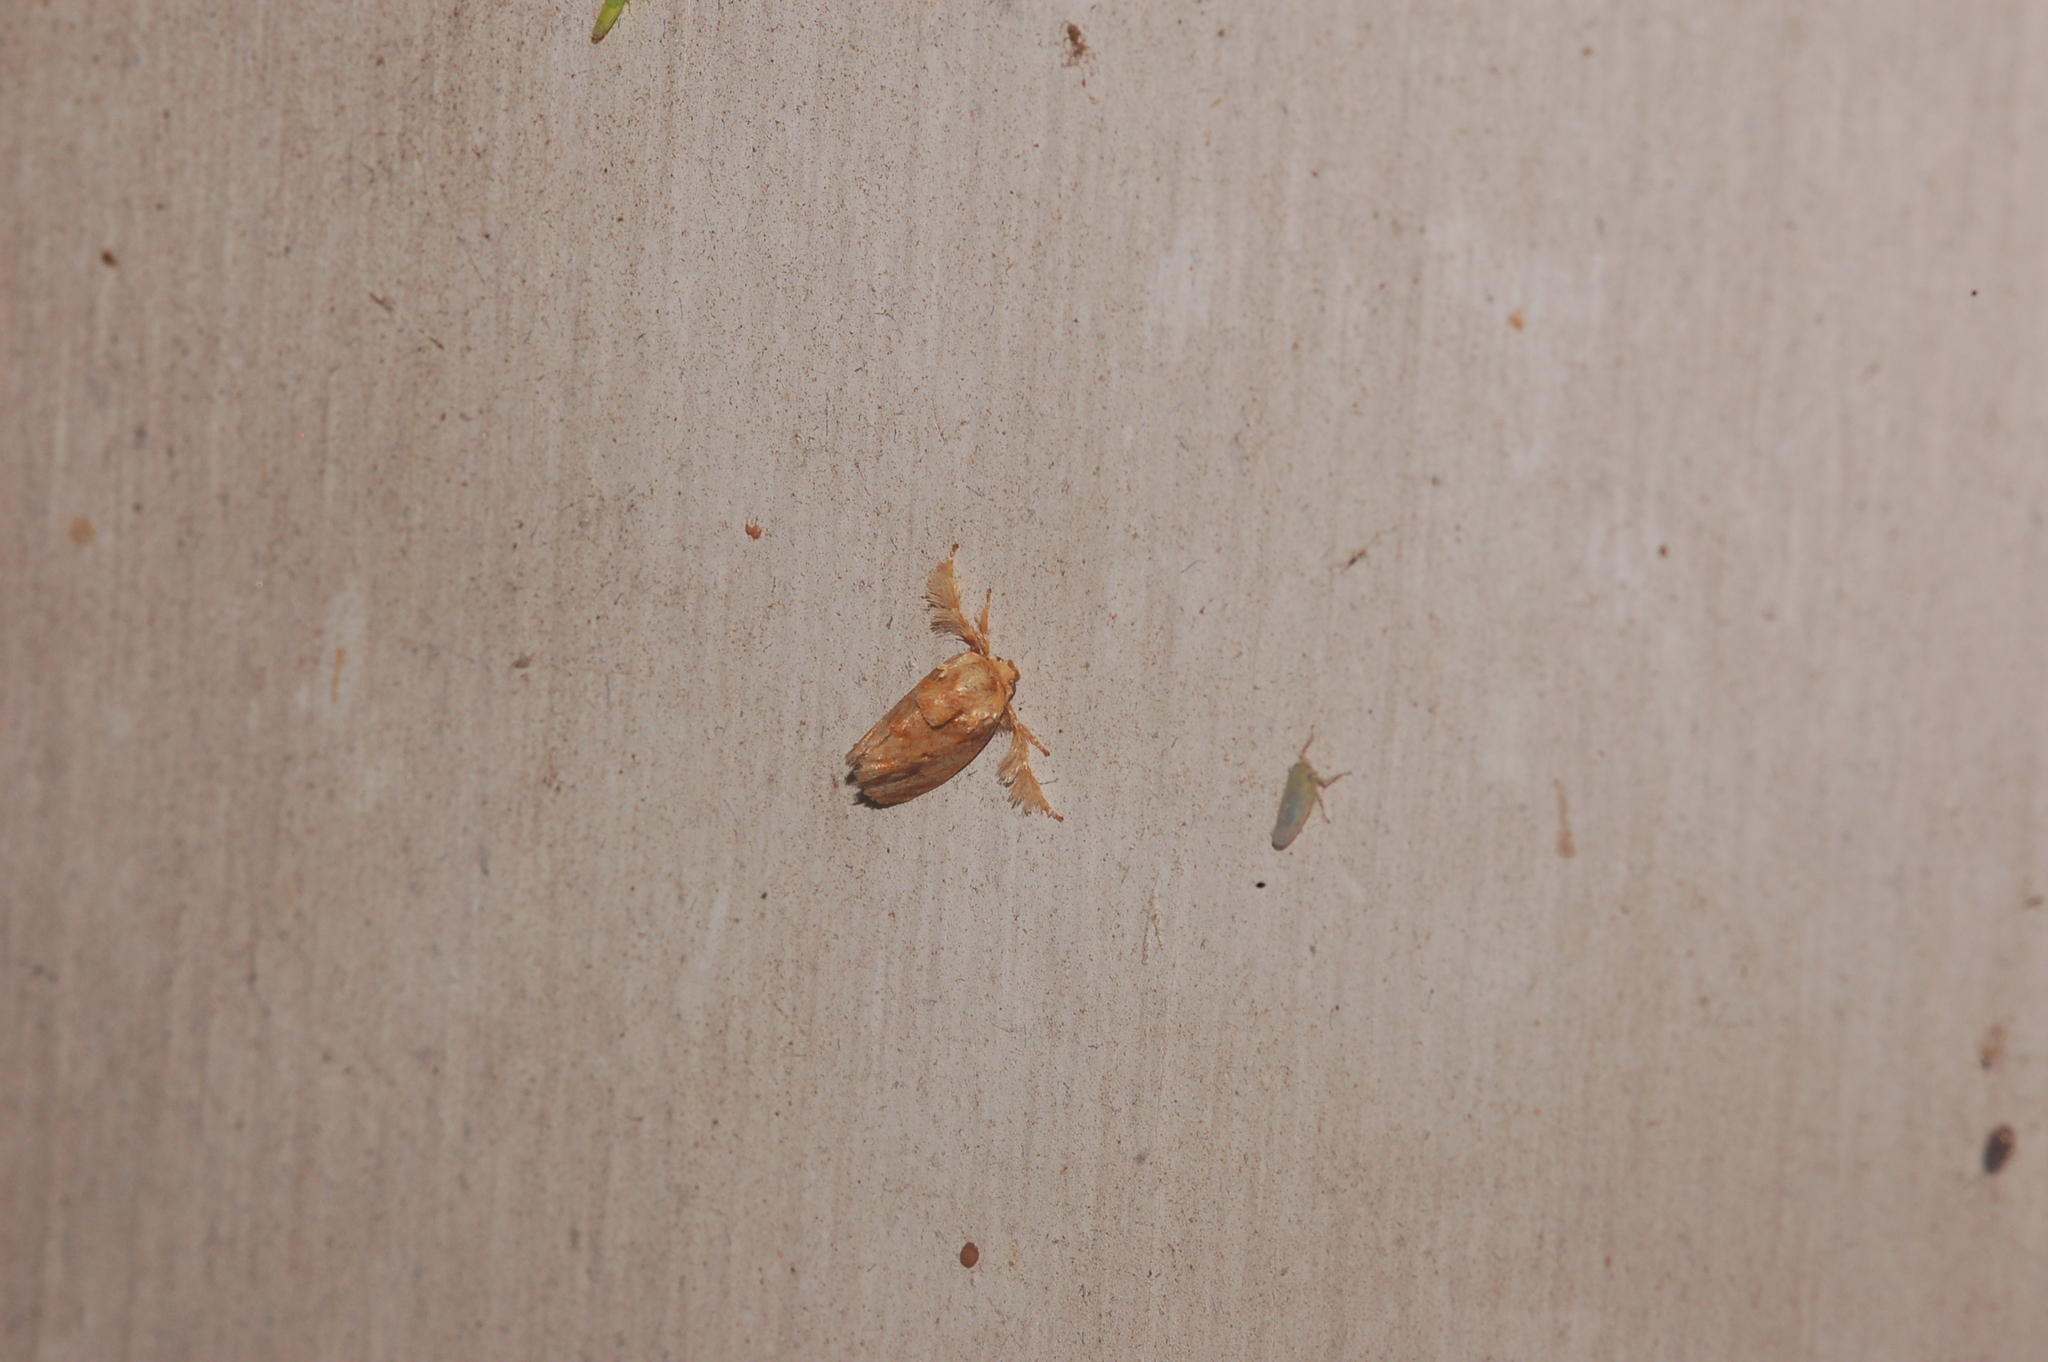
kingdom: Animalia
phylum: Arthropoda
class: Insecta
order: Lepidoptera
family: Limacodidae
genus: Isochaetes
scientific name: Isochaetes beutenmuelleri
